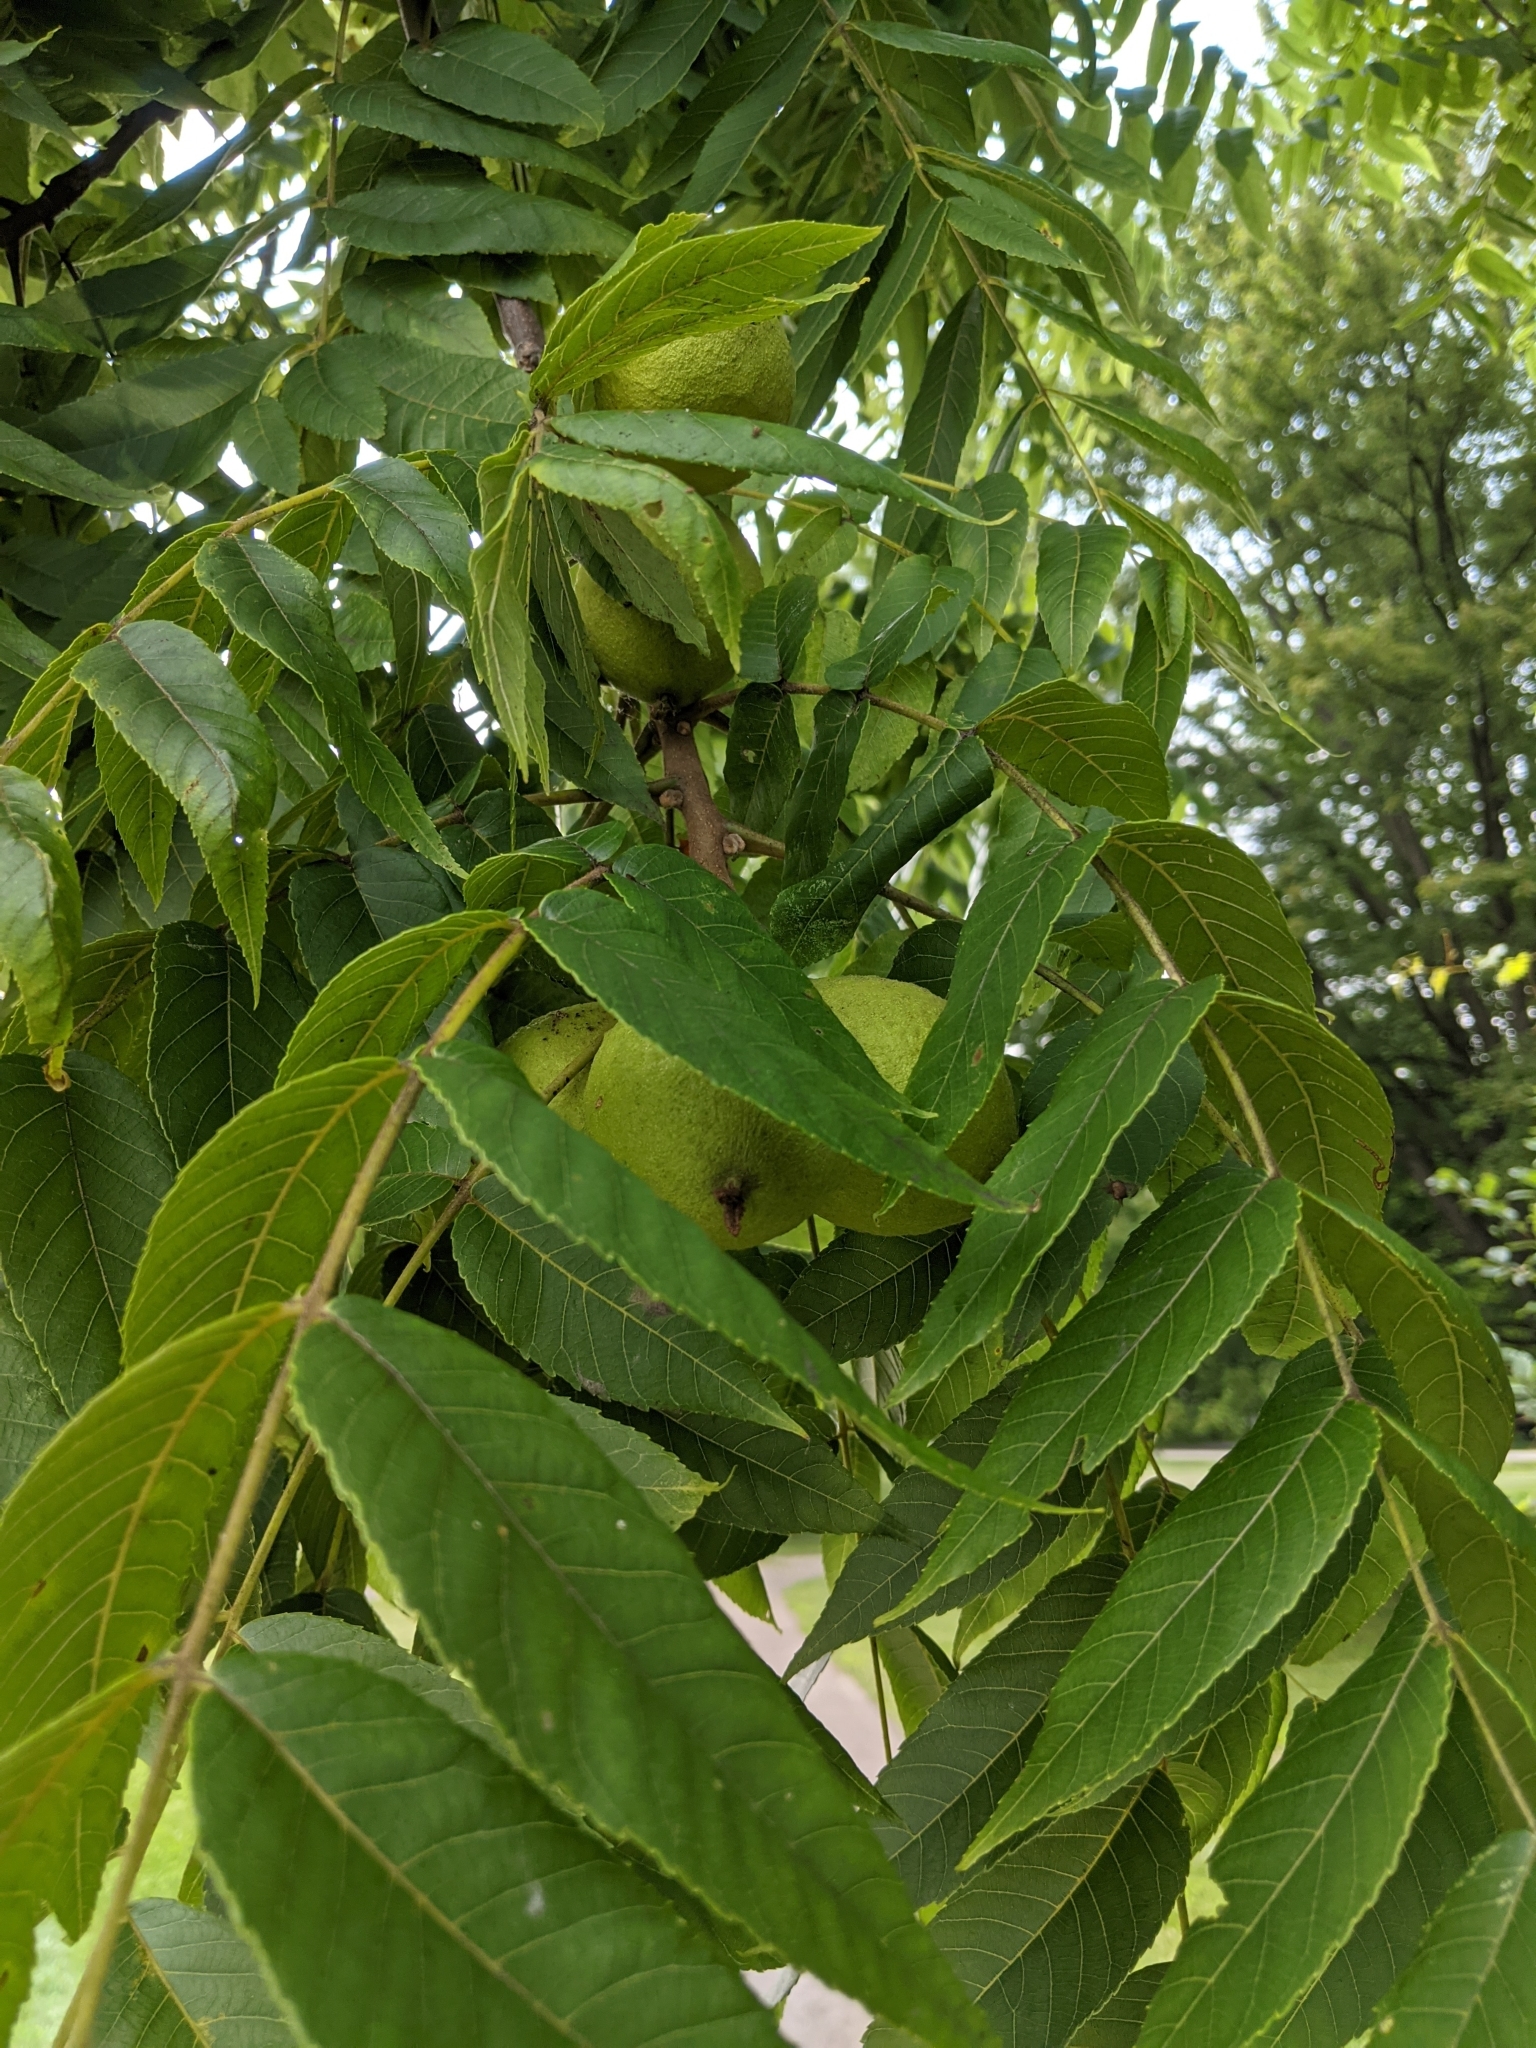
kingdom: Plantae
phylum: Tracheophyta
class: Magnoliopsida
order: Fagales
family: Juglandaceae
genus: Juglans
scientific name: Juglans nigra
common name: Black walnut
